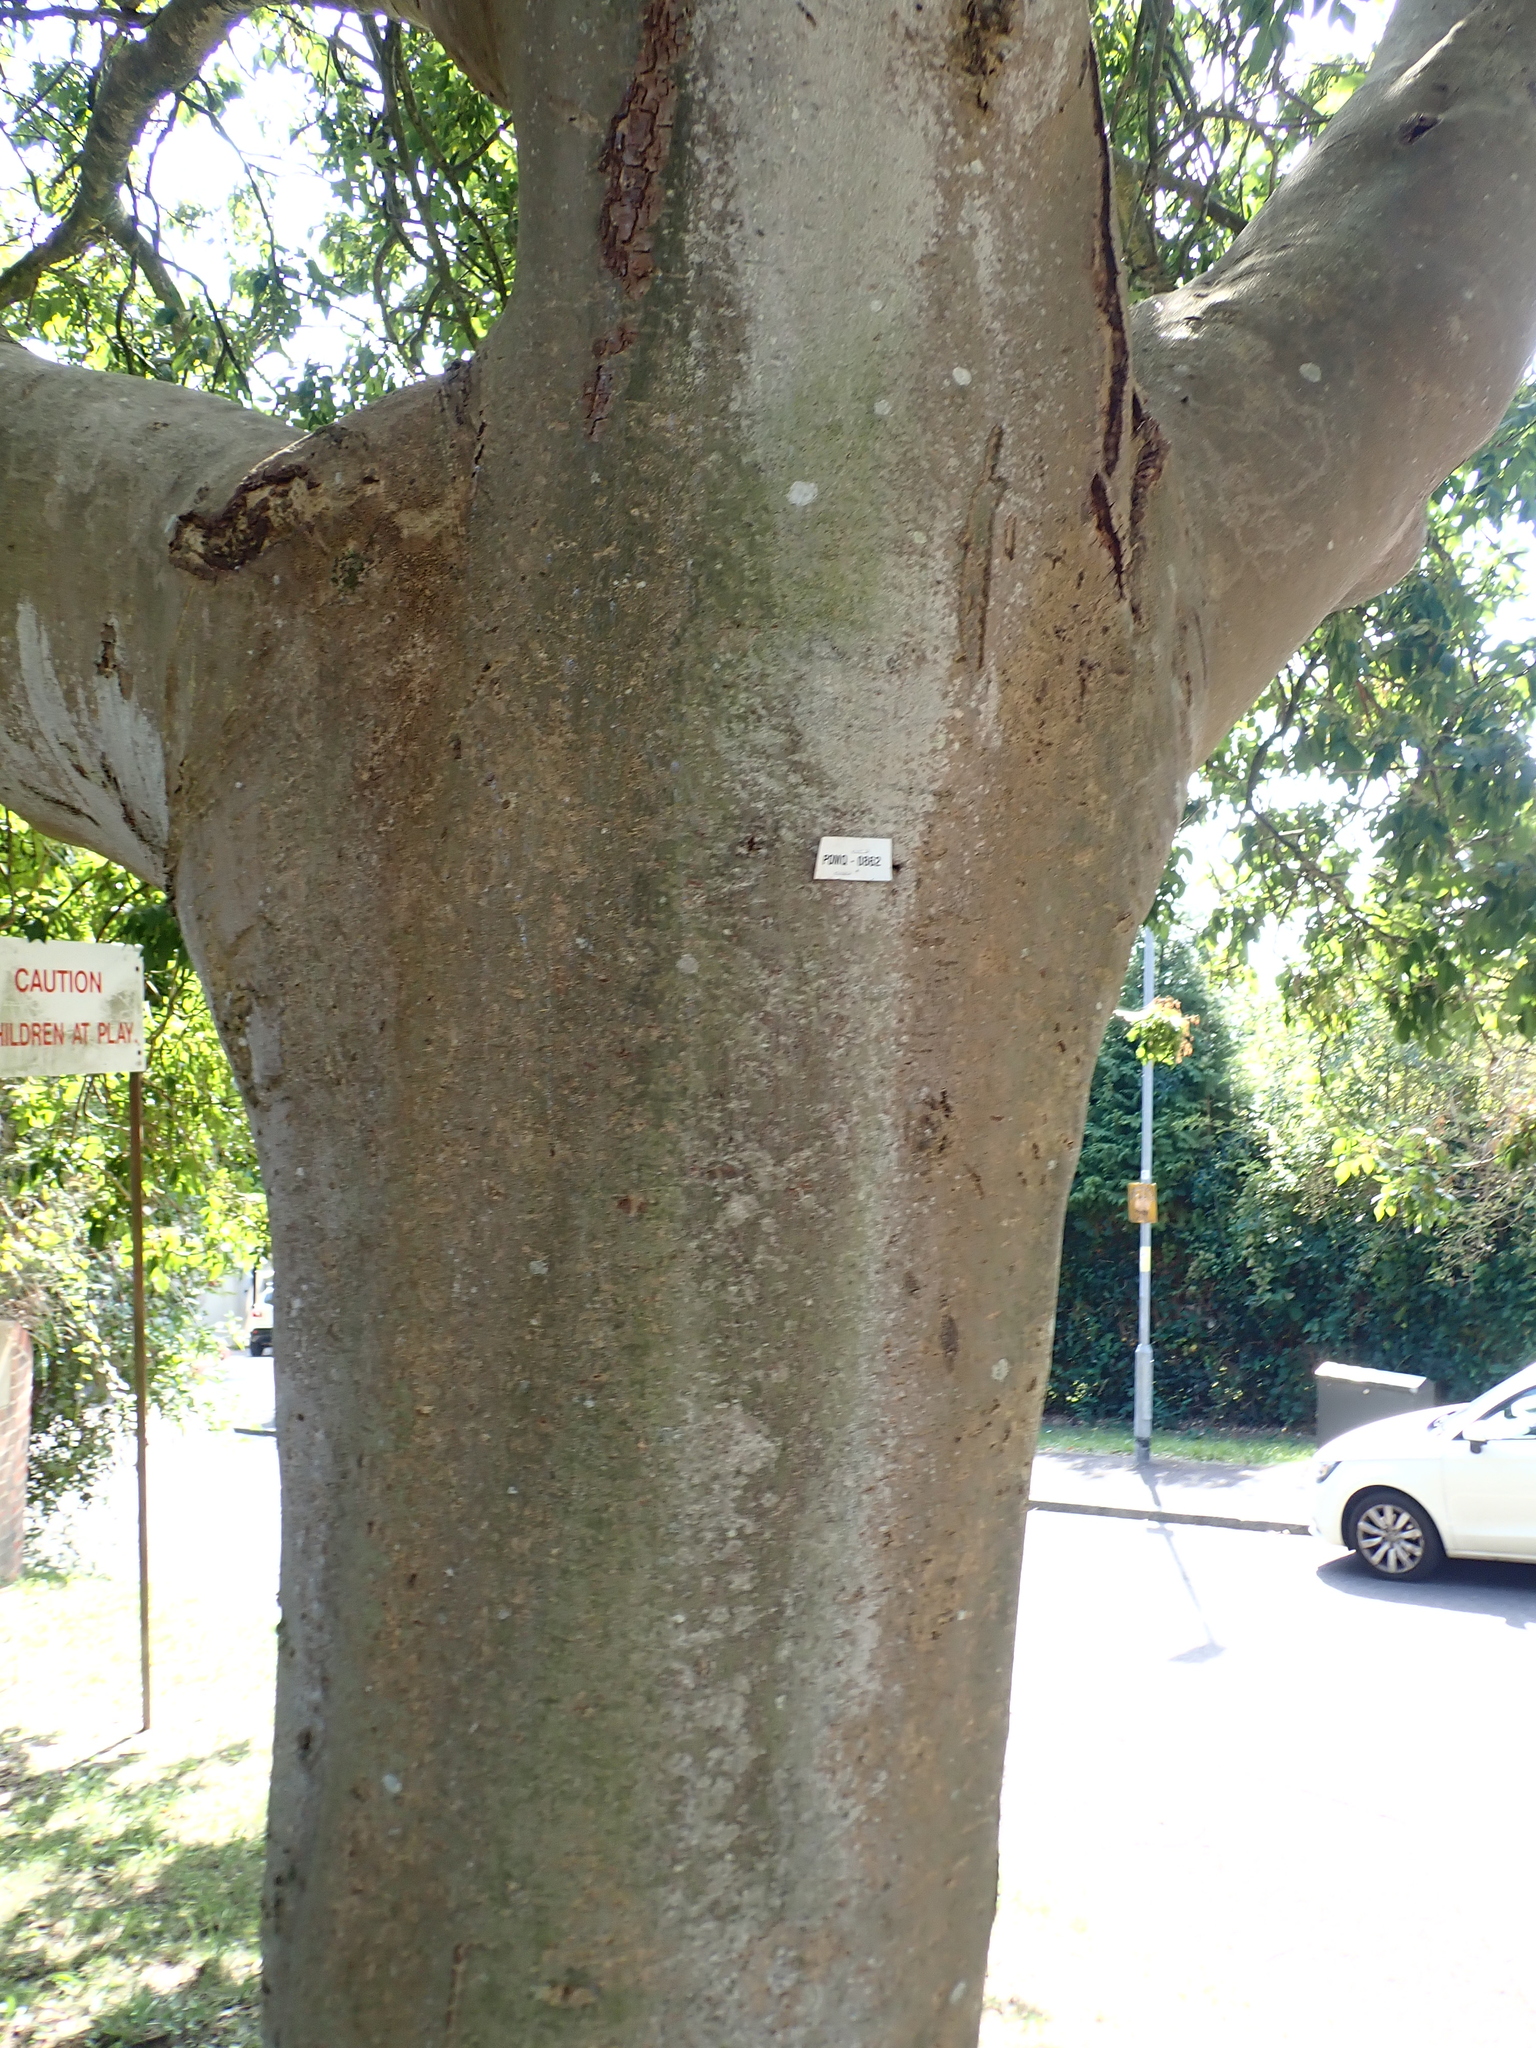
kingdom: Plantae
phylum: Tracheophyta
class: Magnoliopsida
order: Lamiales
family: Oleaceae
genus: Fraxinus
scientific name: Fraxinus ornus
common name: Manna ash
